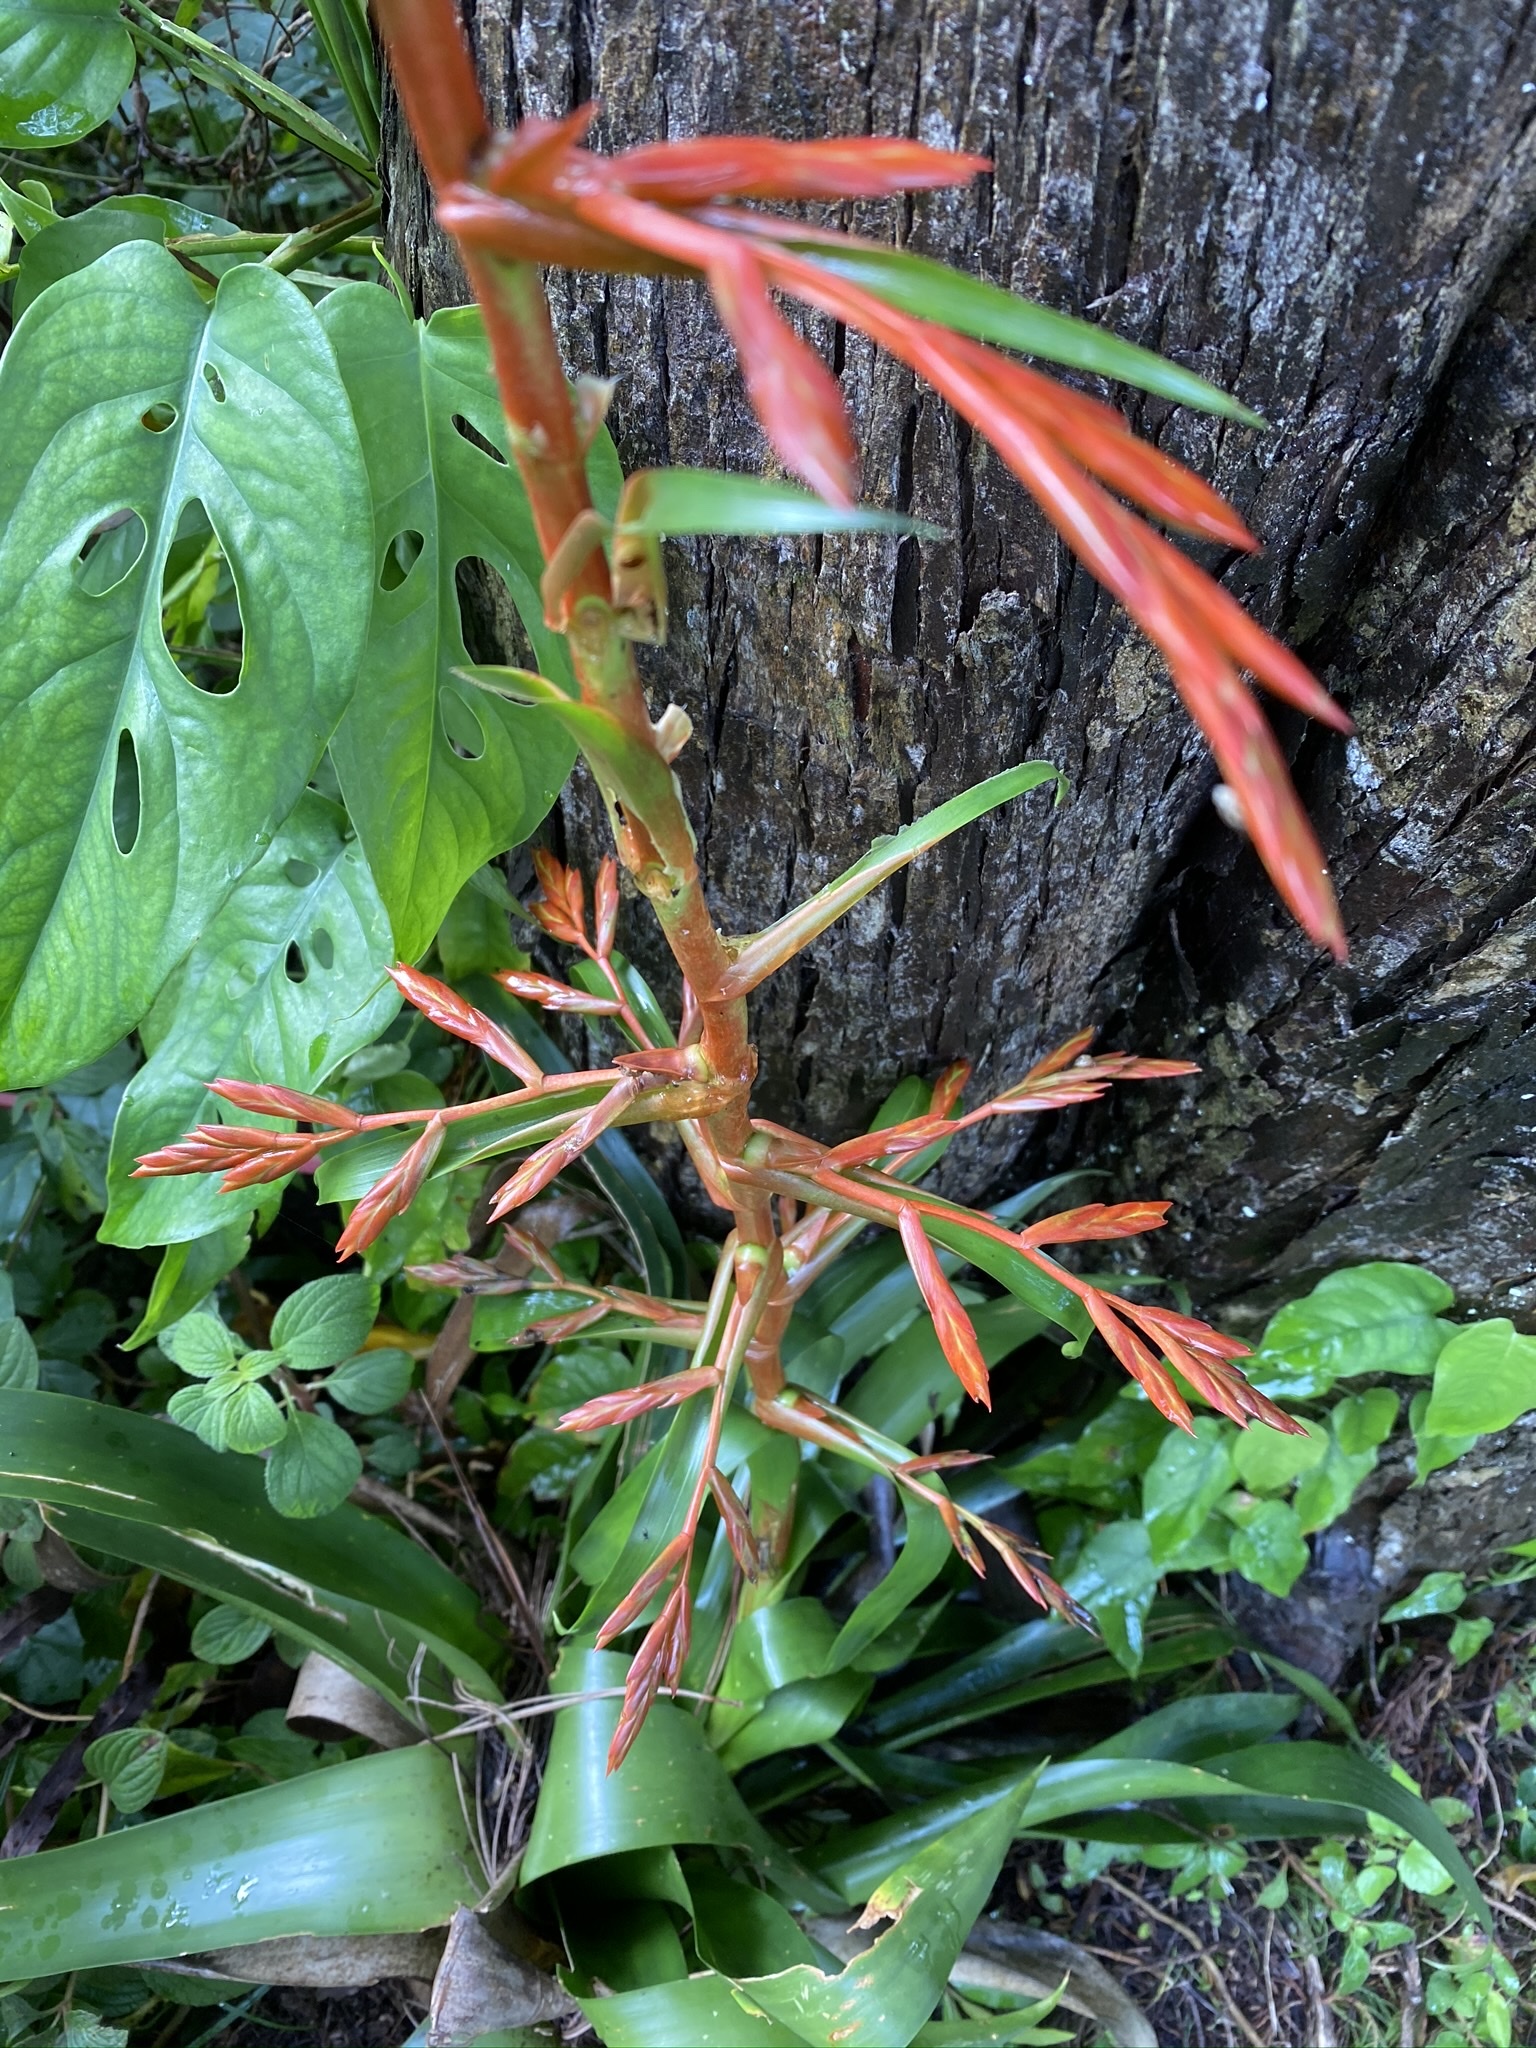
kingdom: Plantae
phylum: Tracheophyta
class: Liliopsida
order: Poales
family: Bromeliaceae
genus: Tillandsia
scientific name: Tillandsia guatemalensis
